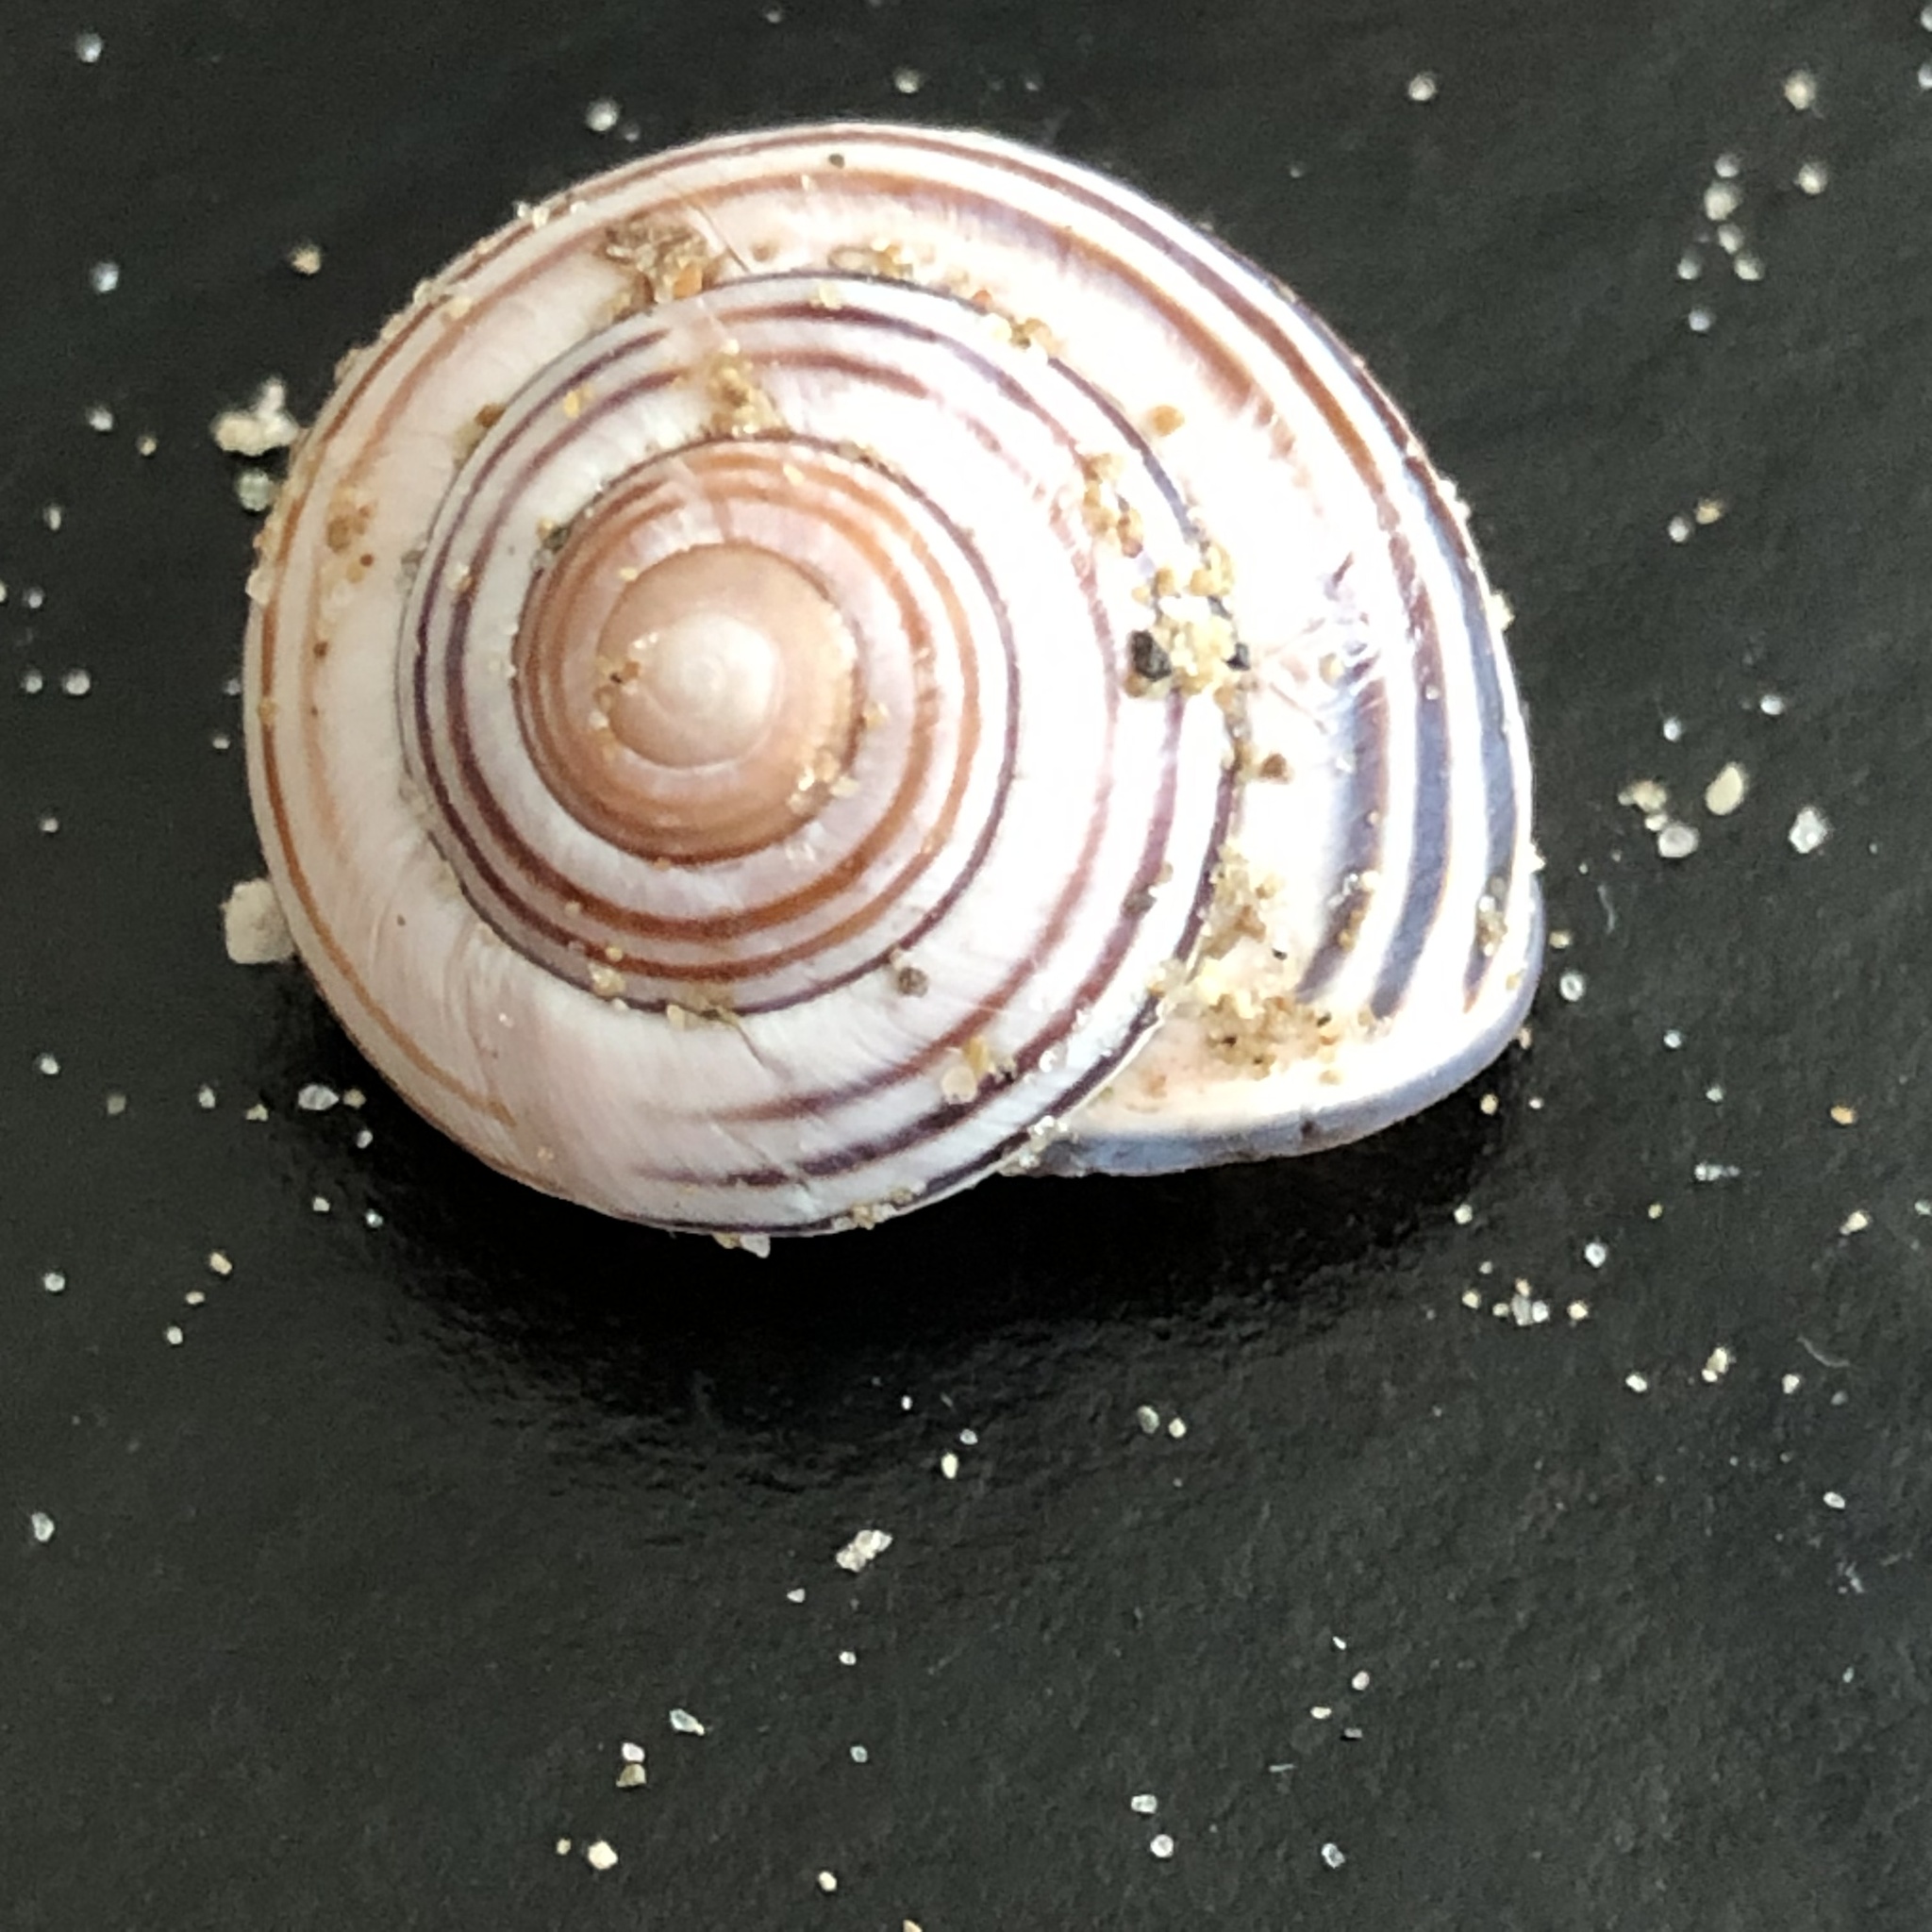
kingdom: Animalia
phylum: Mollusca
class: Gastropoda
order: Stylommatophora
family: Helicidae
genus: Cepaea
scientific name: Cepaea nemoralis
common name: Grovesnail
